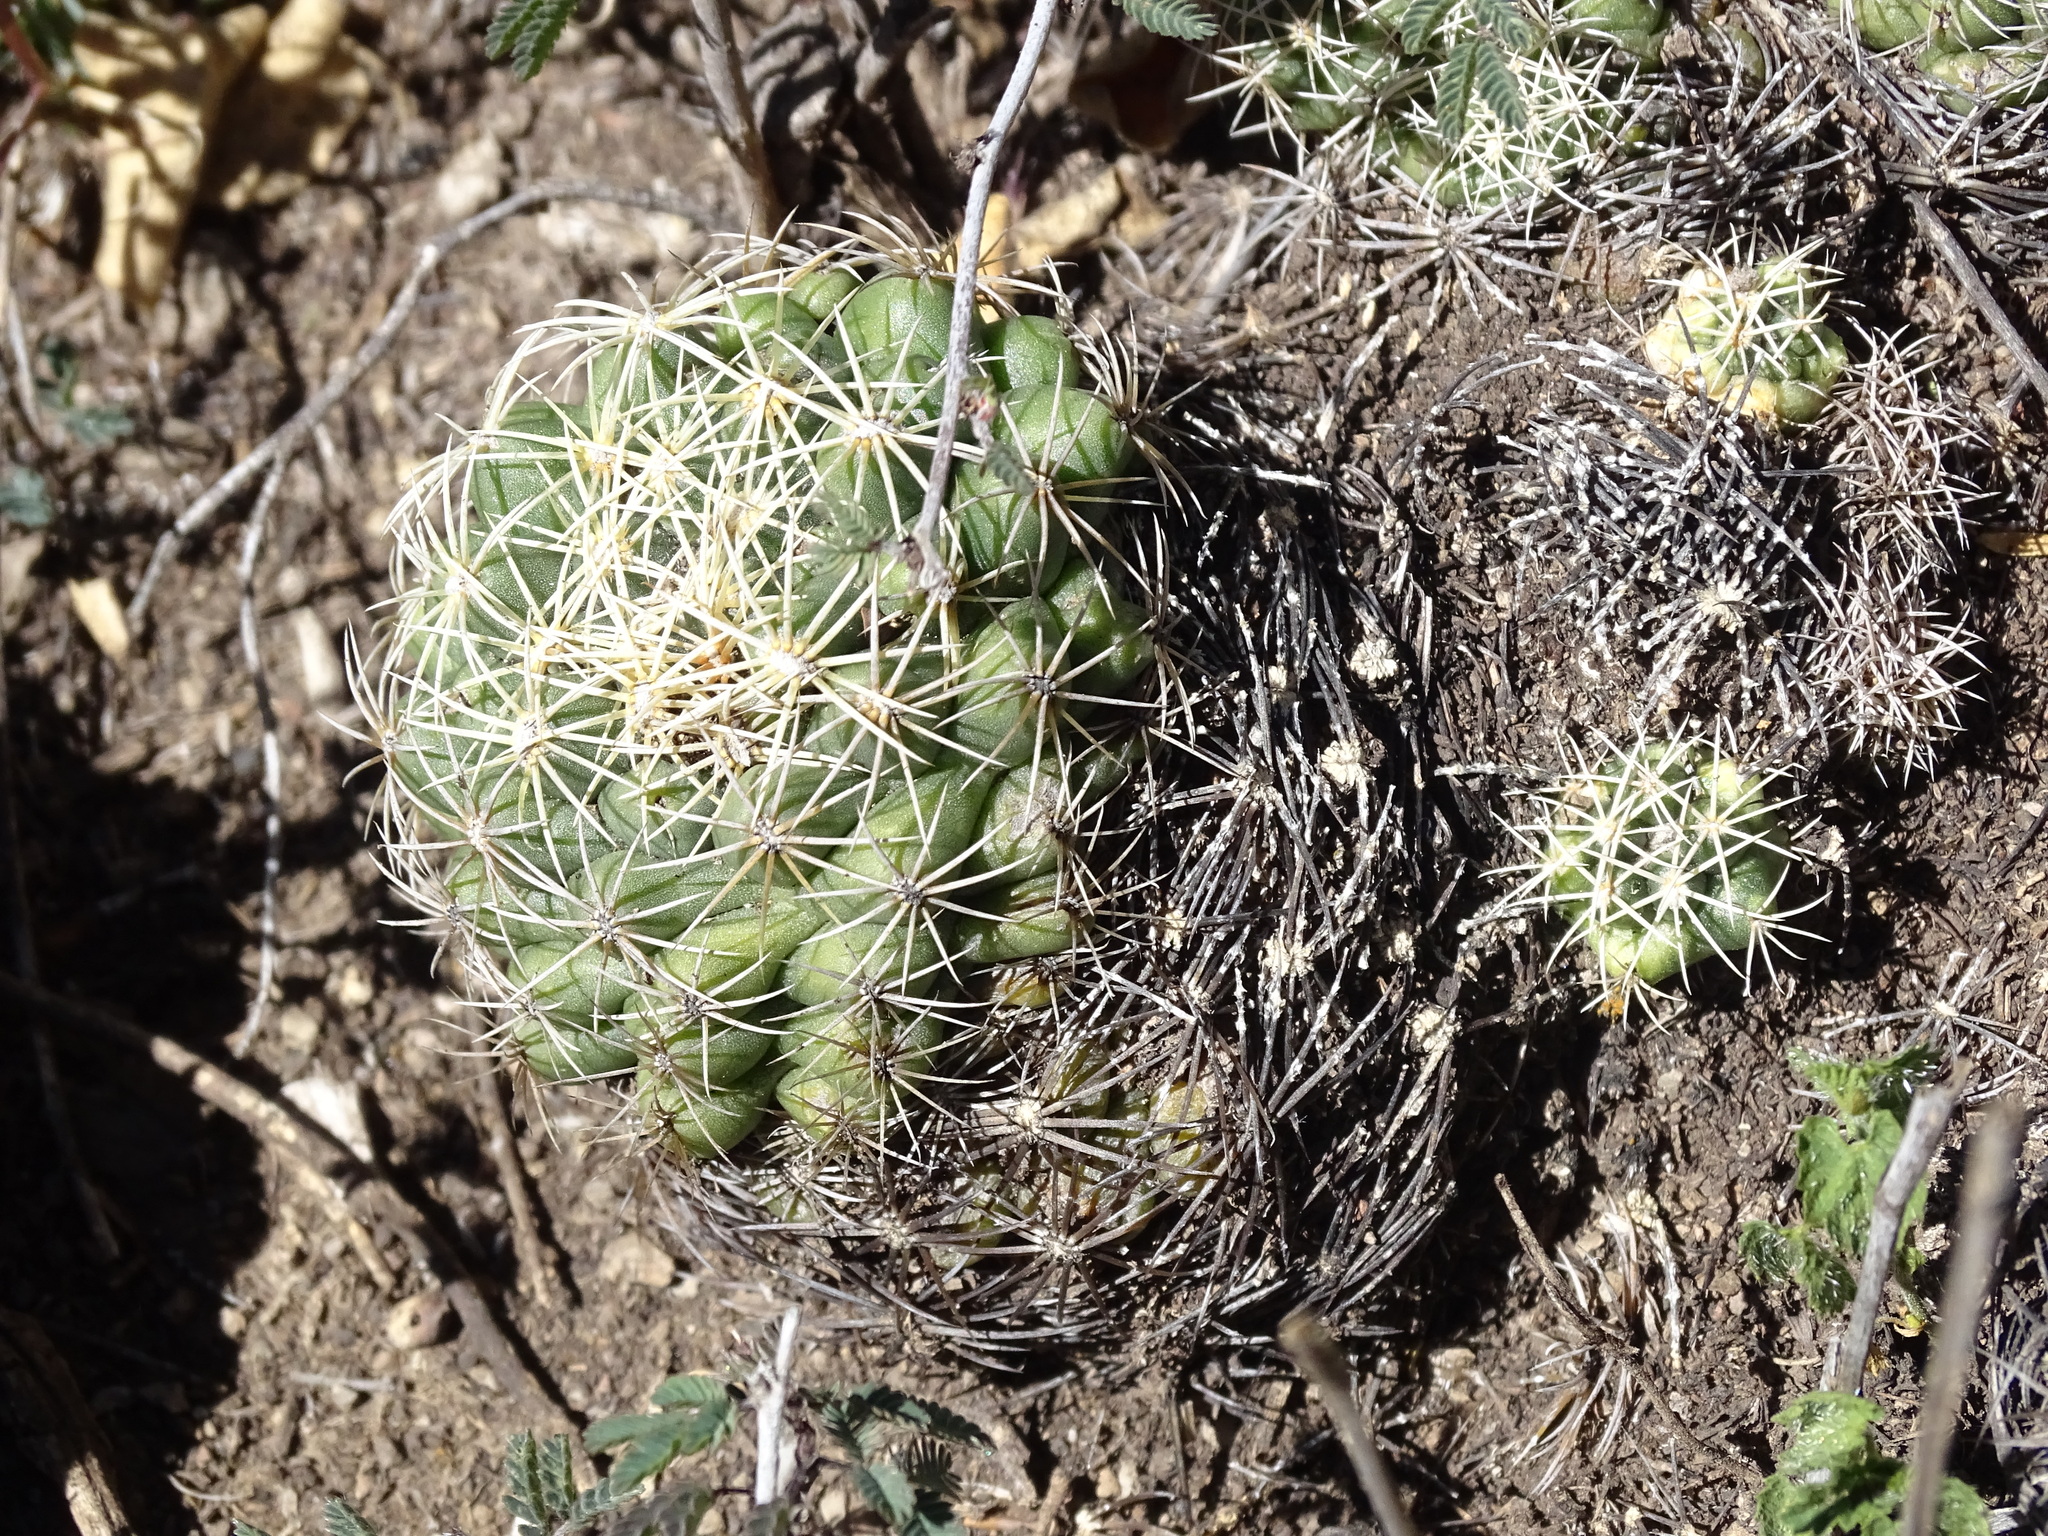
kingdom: Plantae
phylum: Tracheophyta
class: Magnoliopsida
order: Caryophyllales
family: Cactaceae
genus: Coryphantha
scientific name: Coryphantha cornifera
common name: Rhinoceros cactus
